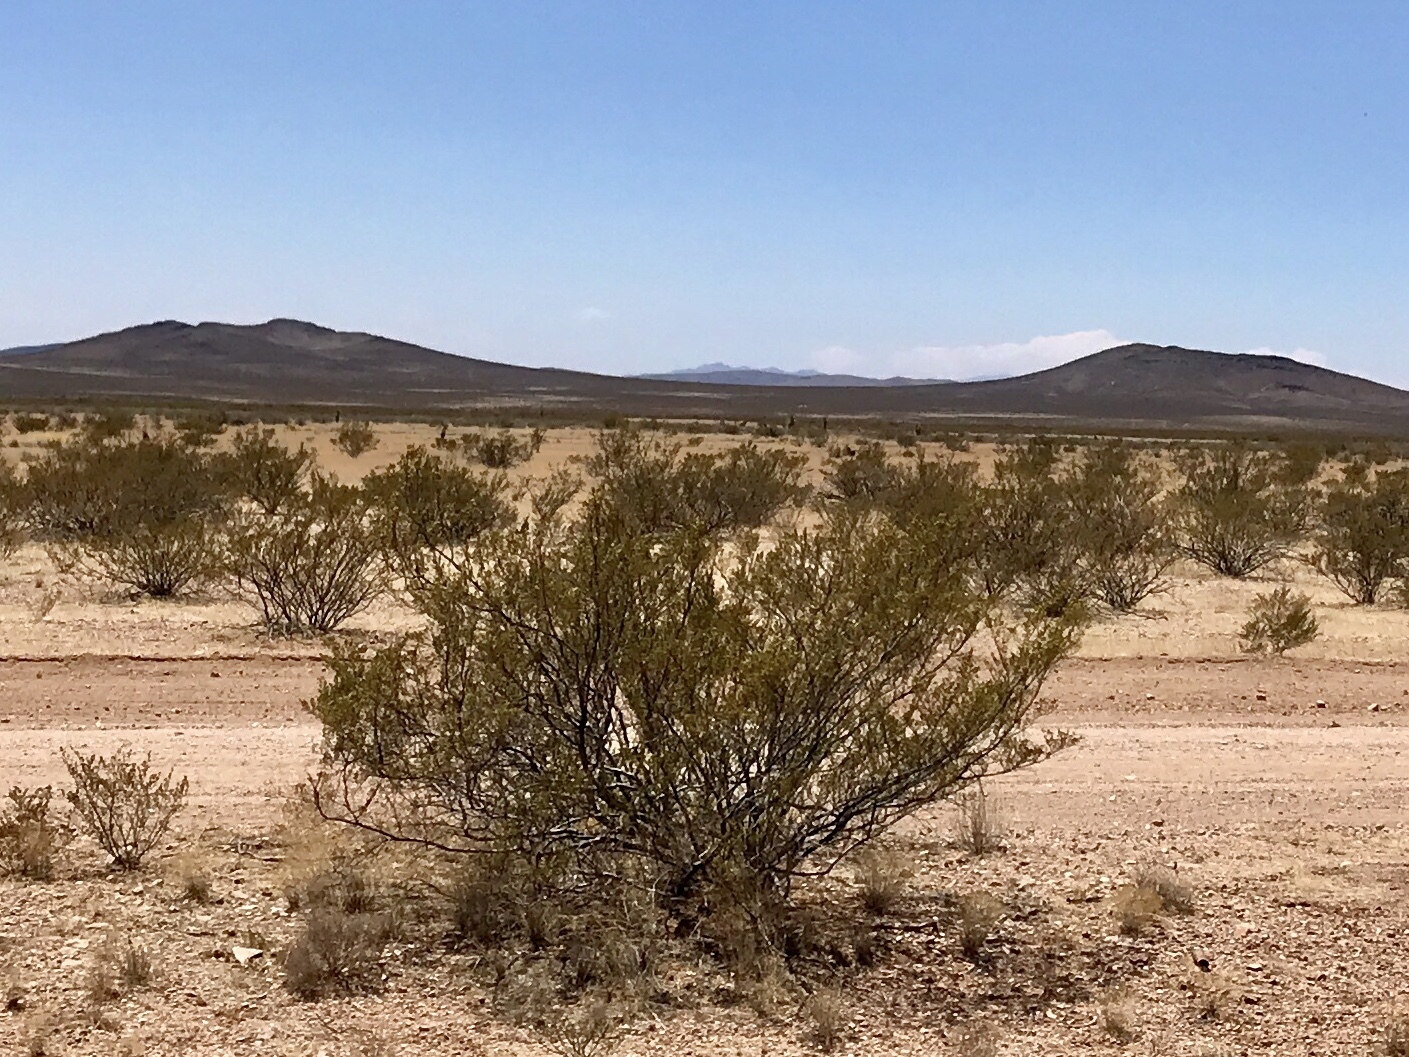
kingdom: Plantae
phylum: Tracheophyta
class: Magnoliopsida
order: Zygophyllales
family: Zygophyllaceae
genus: Larrea
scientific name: Larrea tridentata
